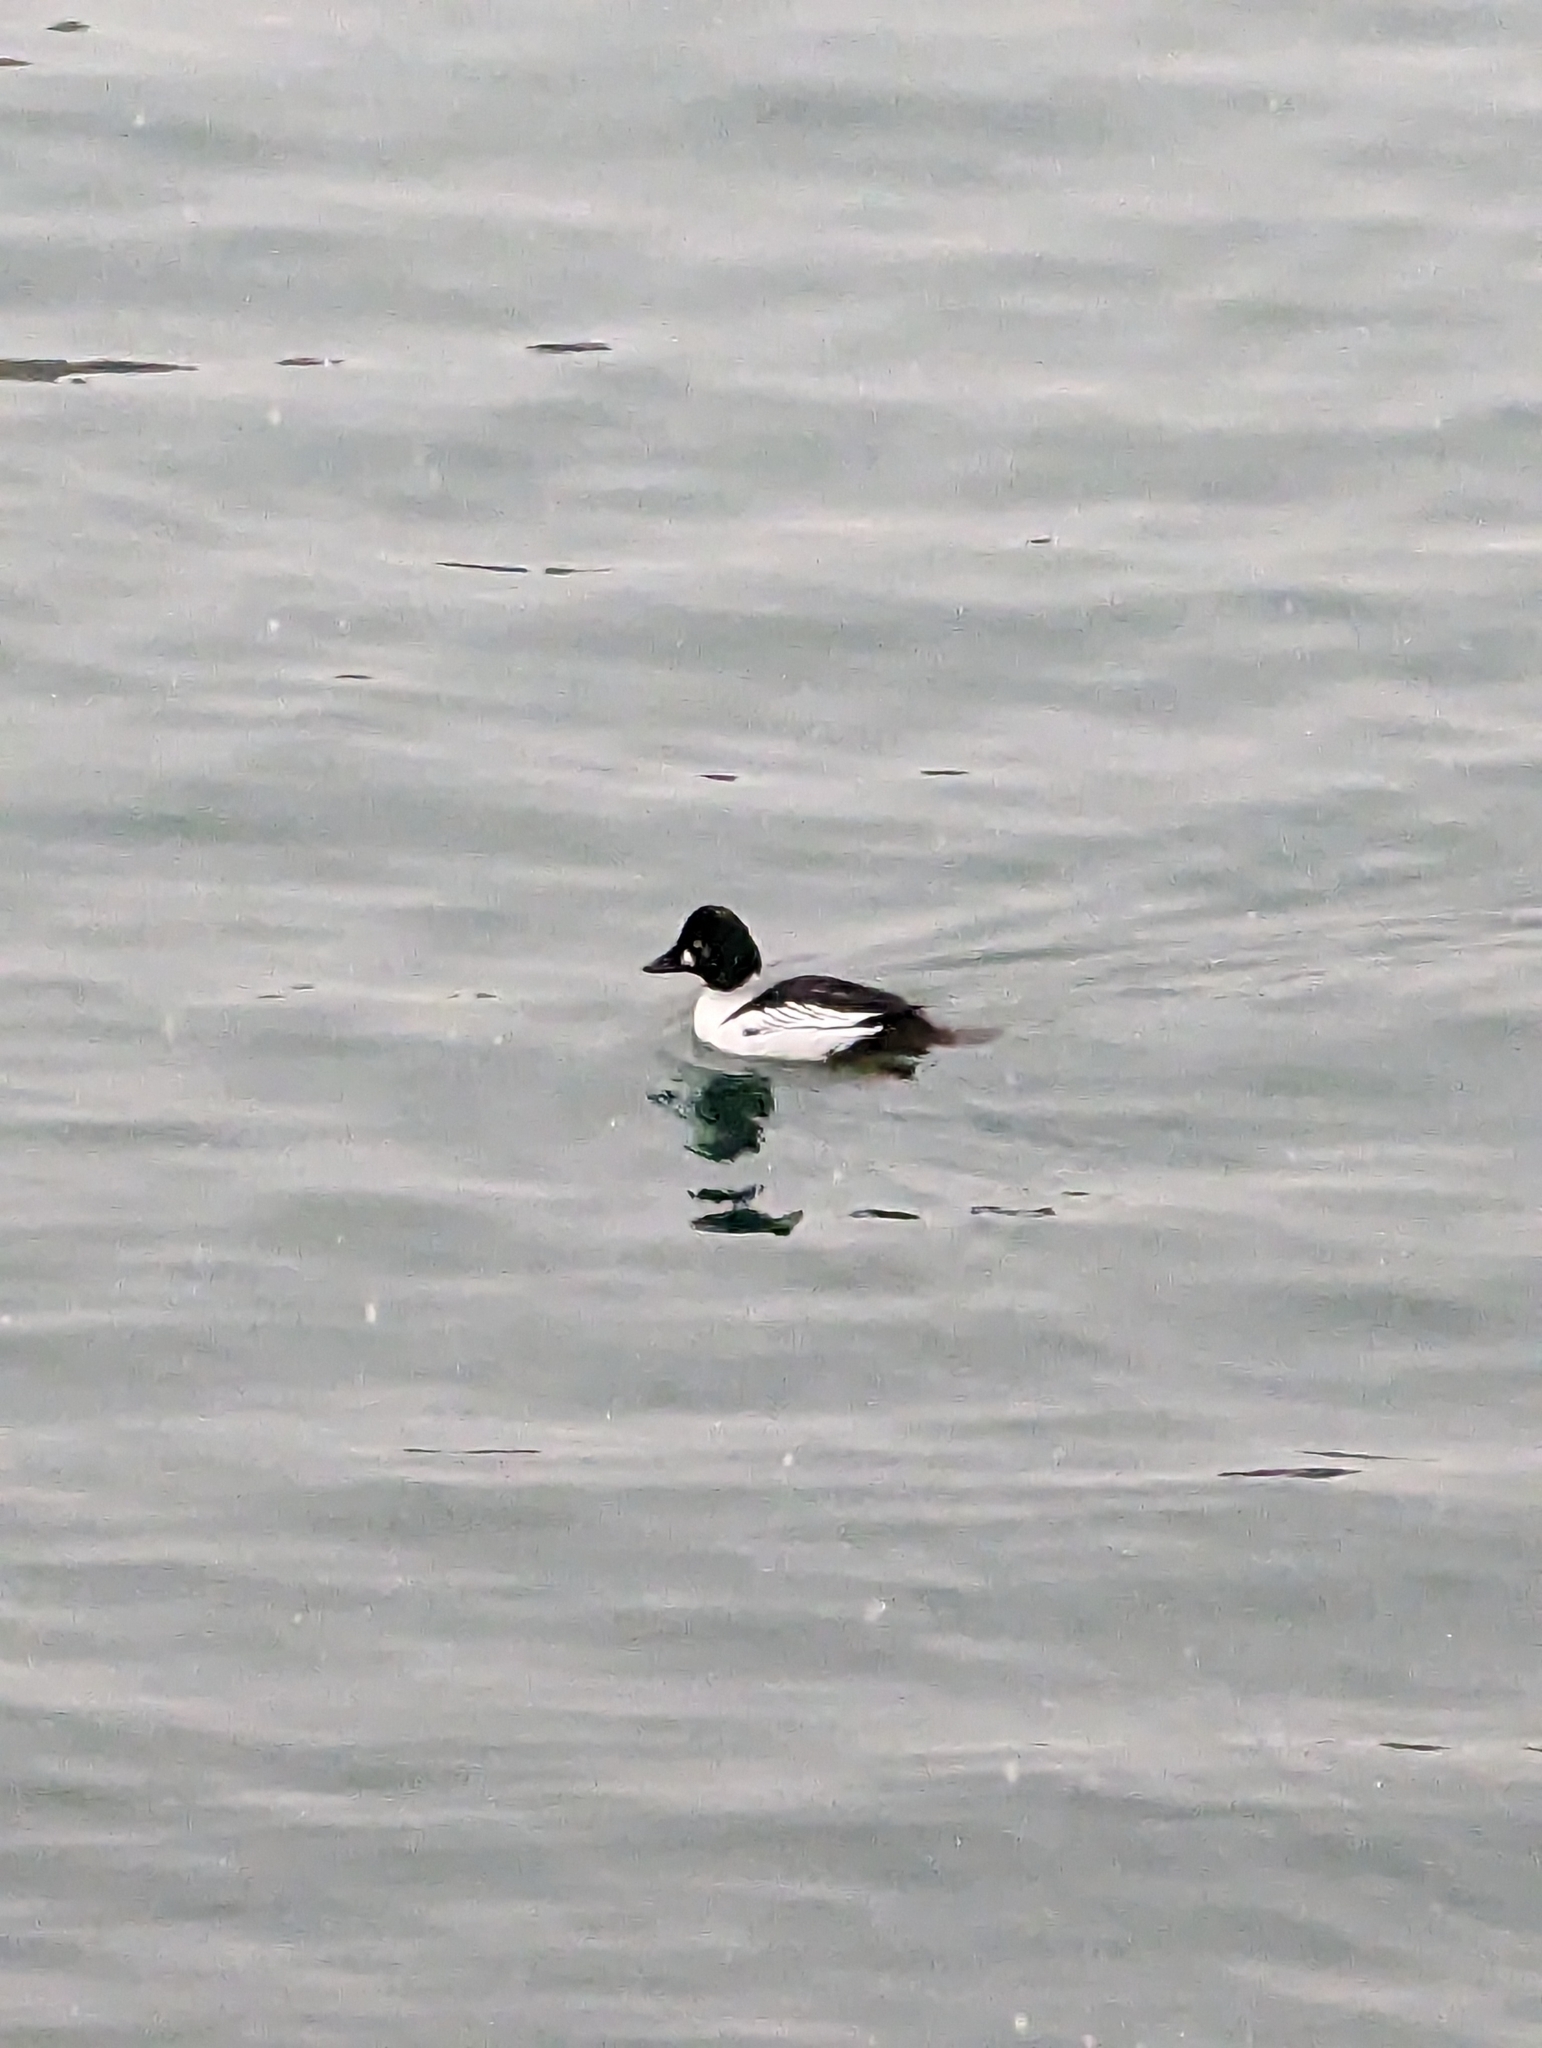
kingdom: Animalia
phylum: Chordata
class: Aves
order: Anseriformes
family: Anatidae
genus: Bucephala
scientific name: Bucephala clangula
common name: Common goldeneye
